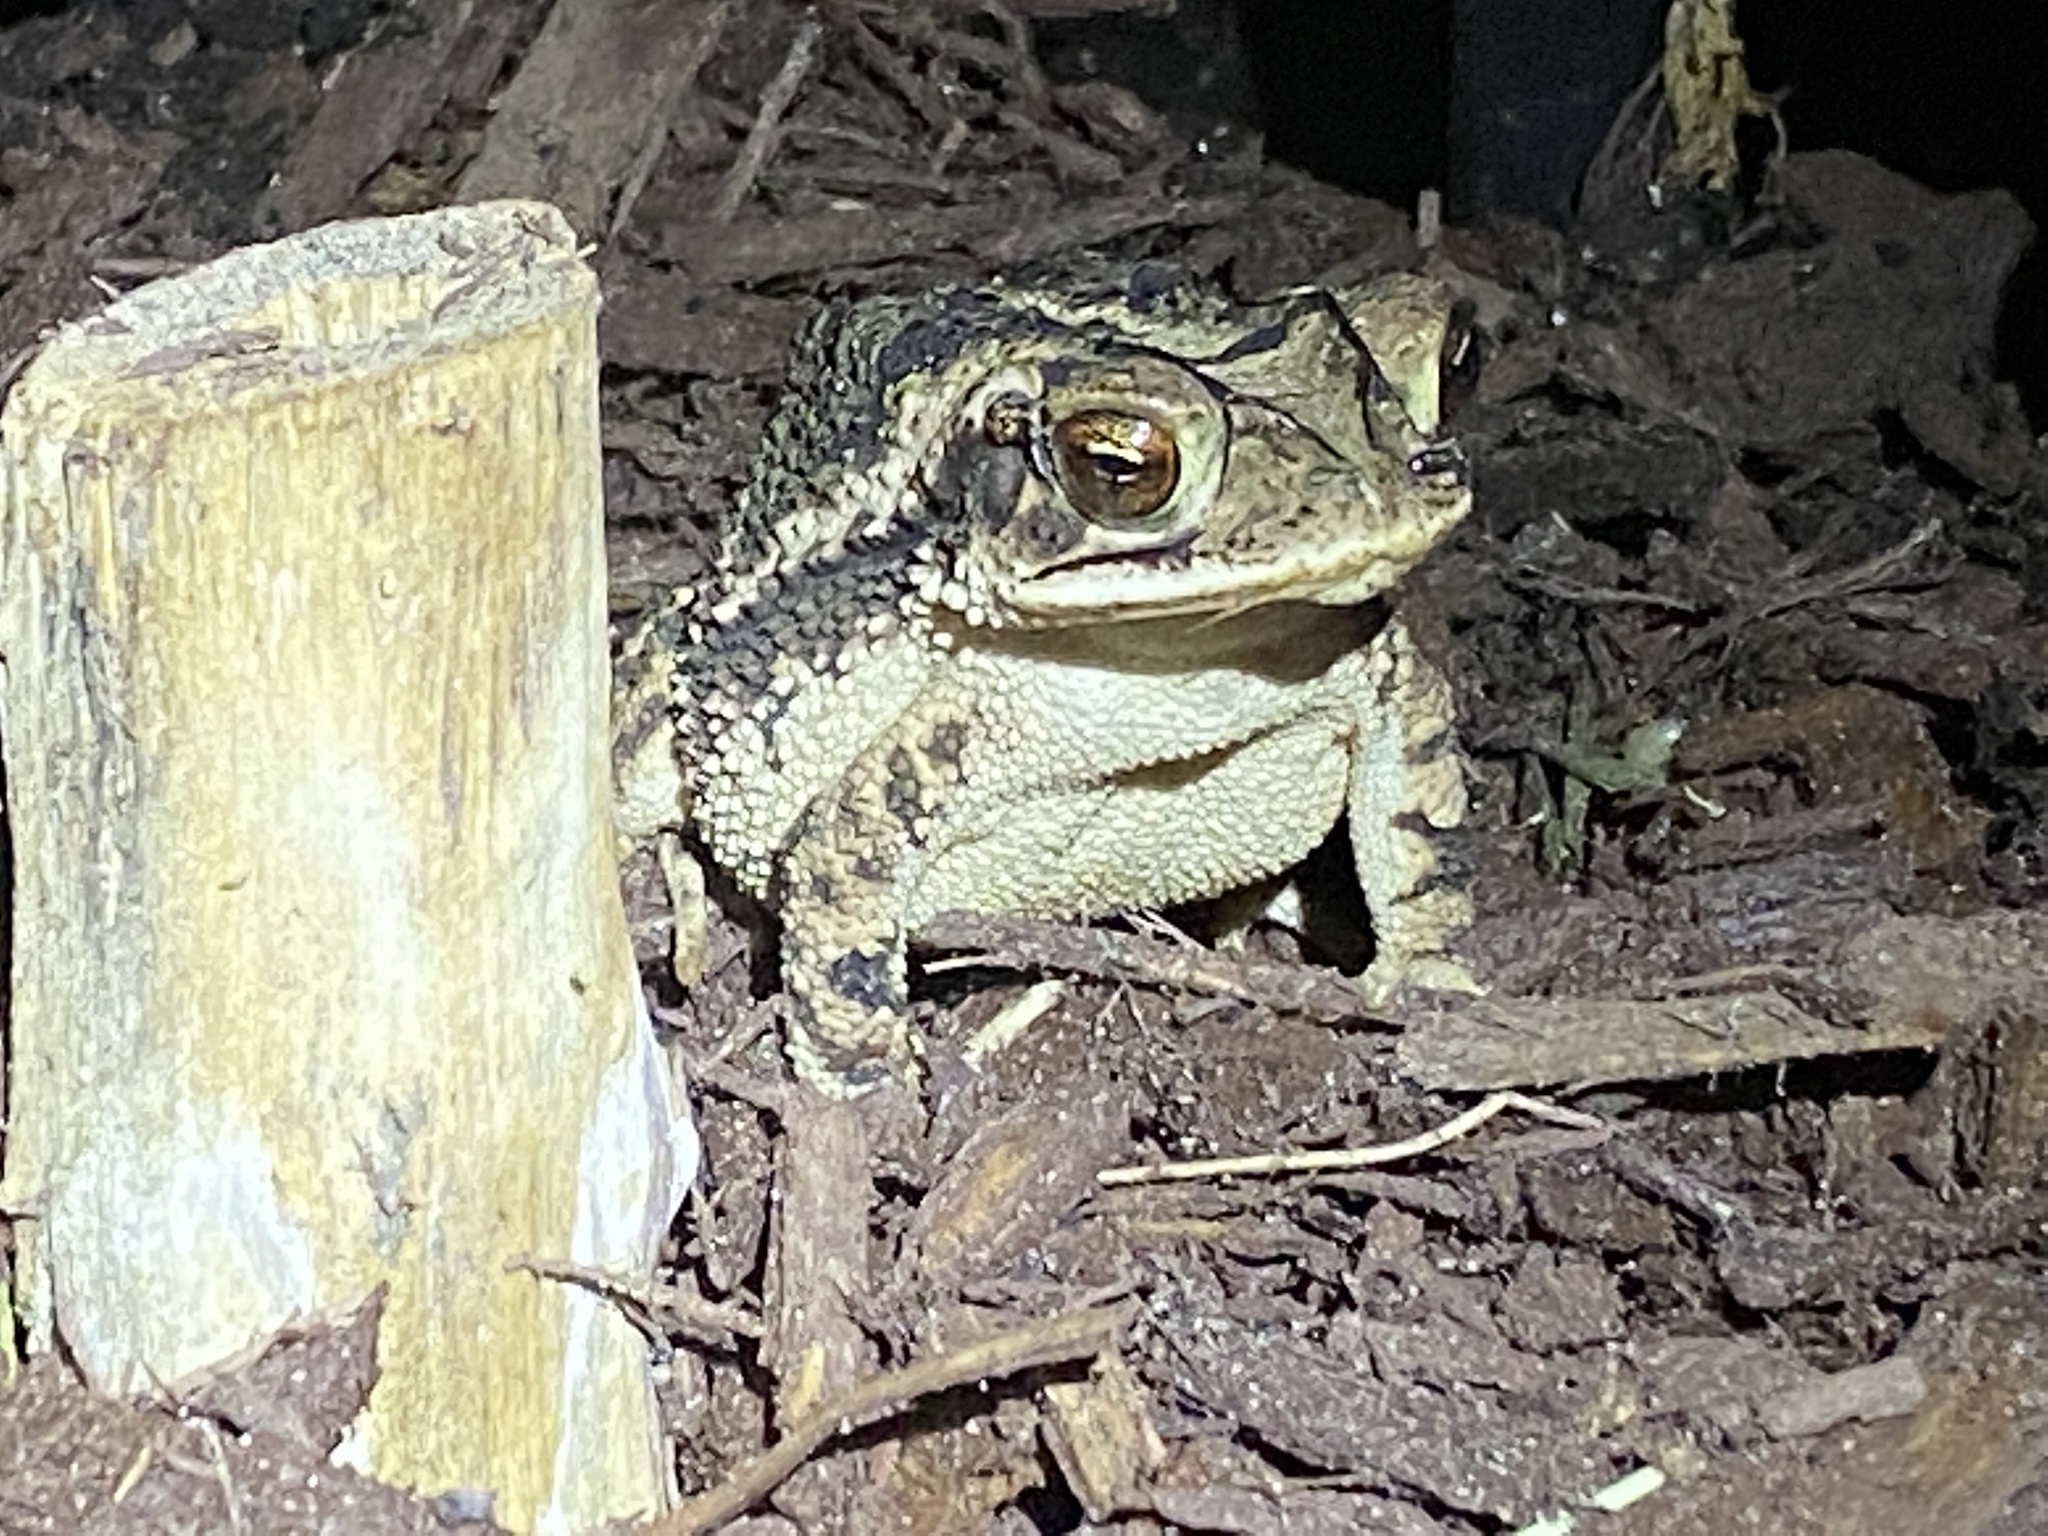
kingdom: Animalia
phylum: Chordata
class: Amphibia
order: Anura
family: Bufonidae
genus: Incilius
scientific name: Incilius nebulifer
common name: Gulf coast toad
